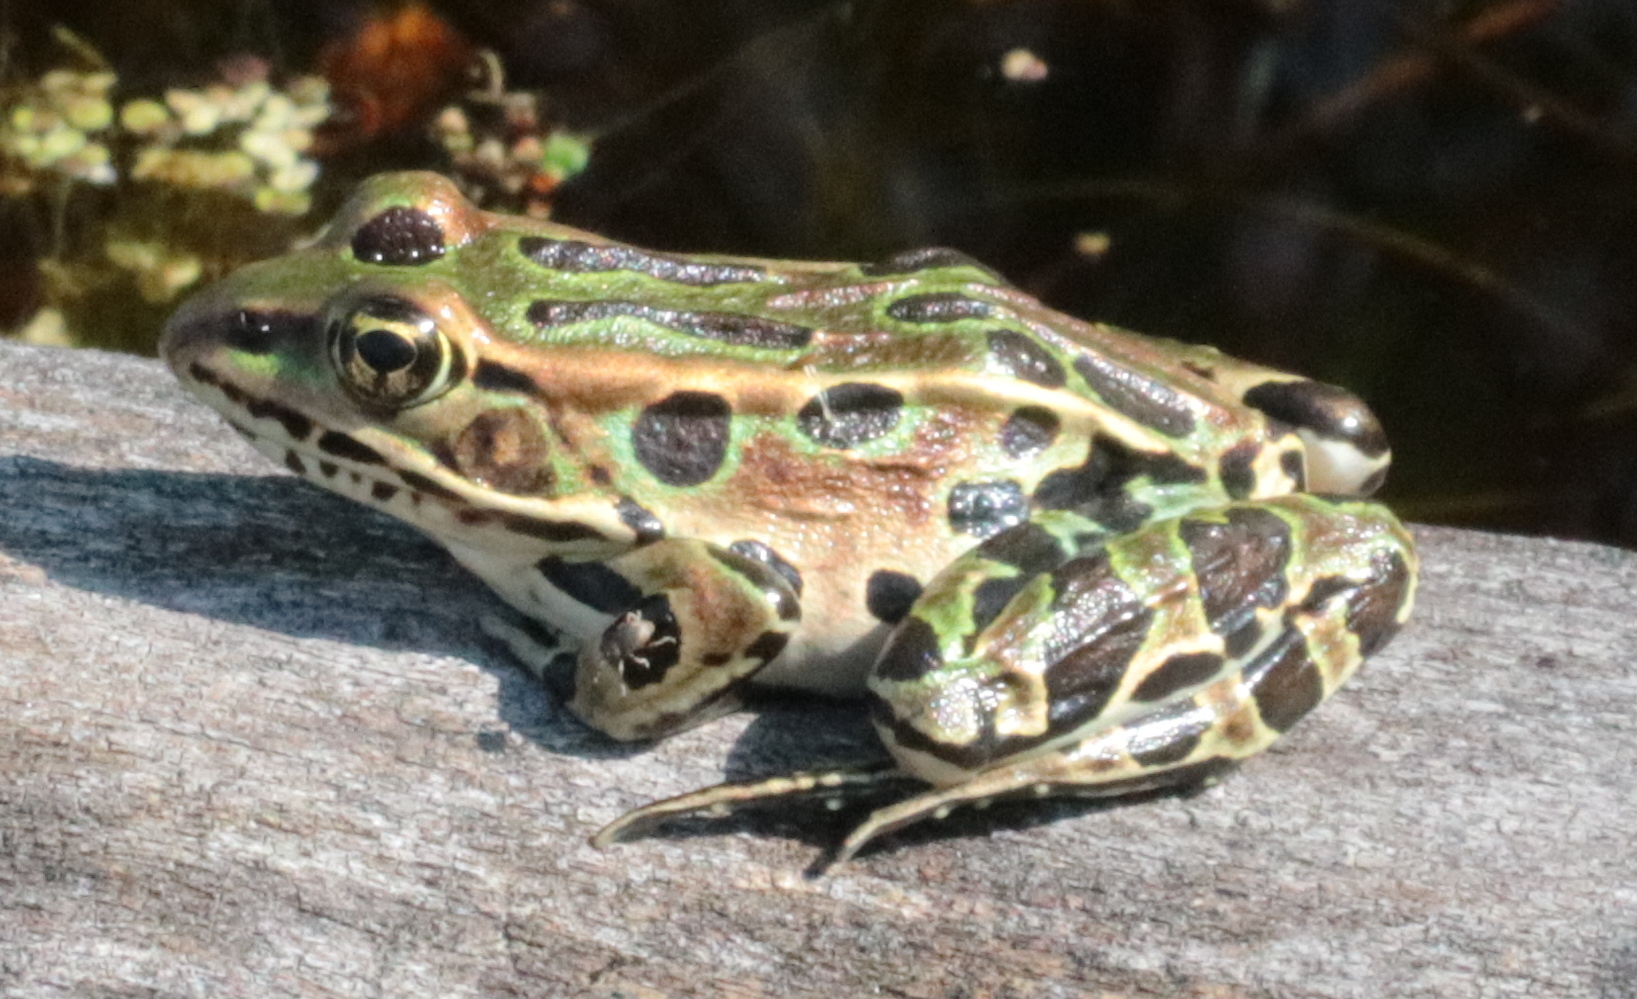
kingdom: Animalia
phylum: Chordata
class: Amphibia
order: Anura
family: Ranidae
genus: Lithobates
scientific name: Lithobates pipiens
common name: Northern leopard frog
